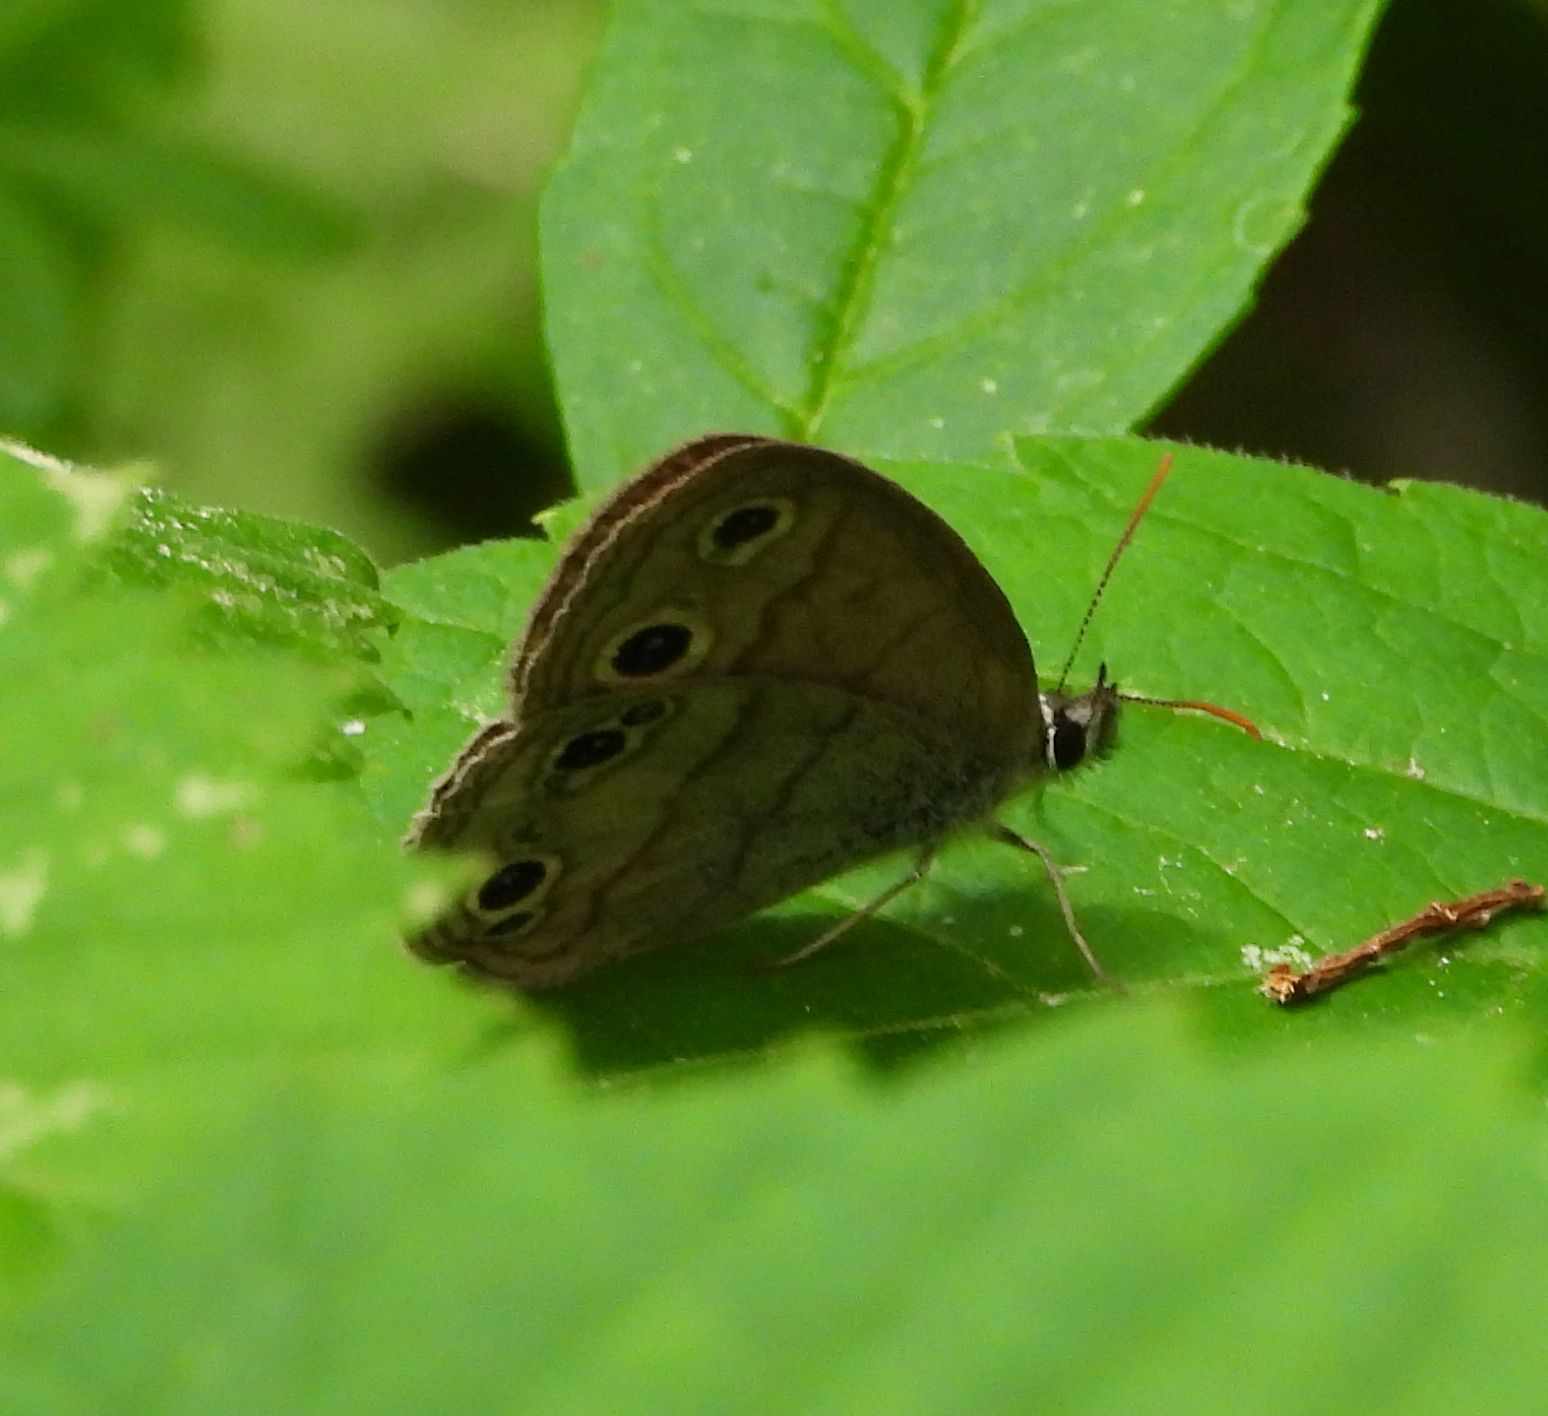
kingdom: Animalia
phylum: Arthropoda
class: Insecta
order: Lepidoptera
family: Nymphalidae
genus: Euptychia
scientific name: Euptychia cymela
